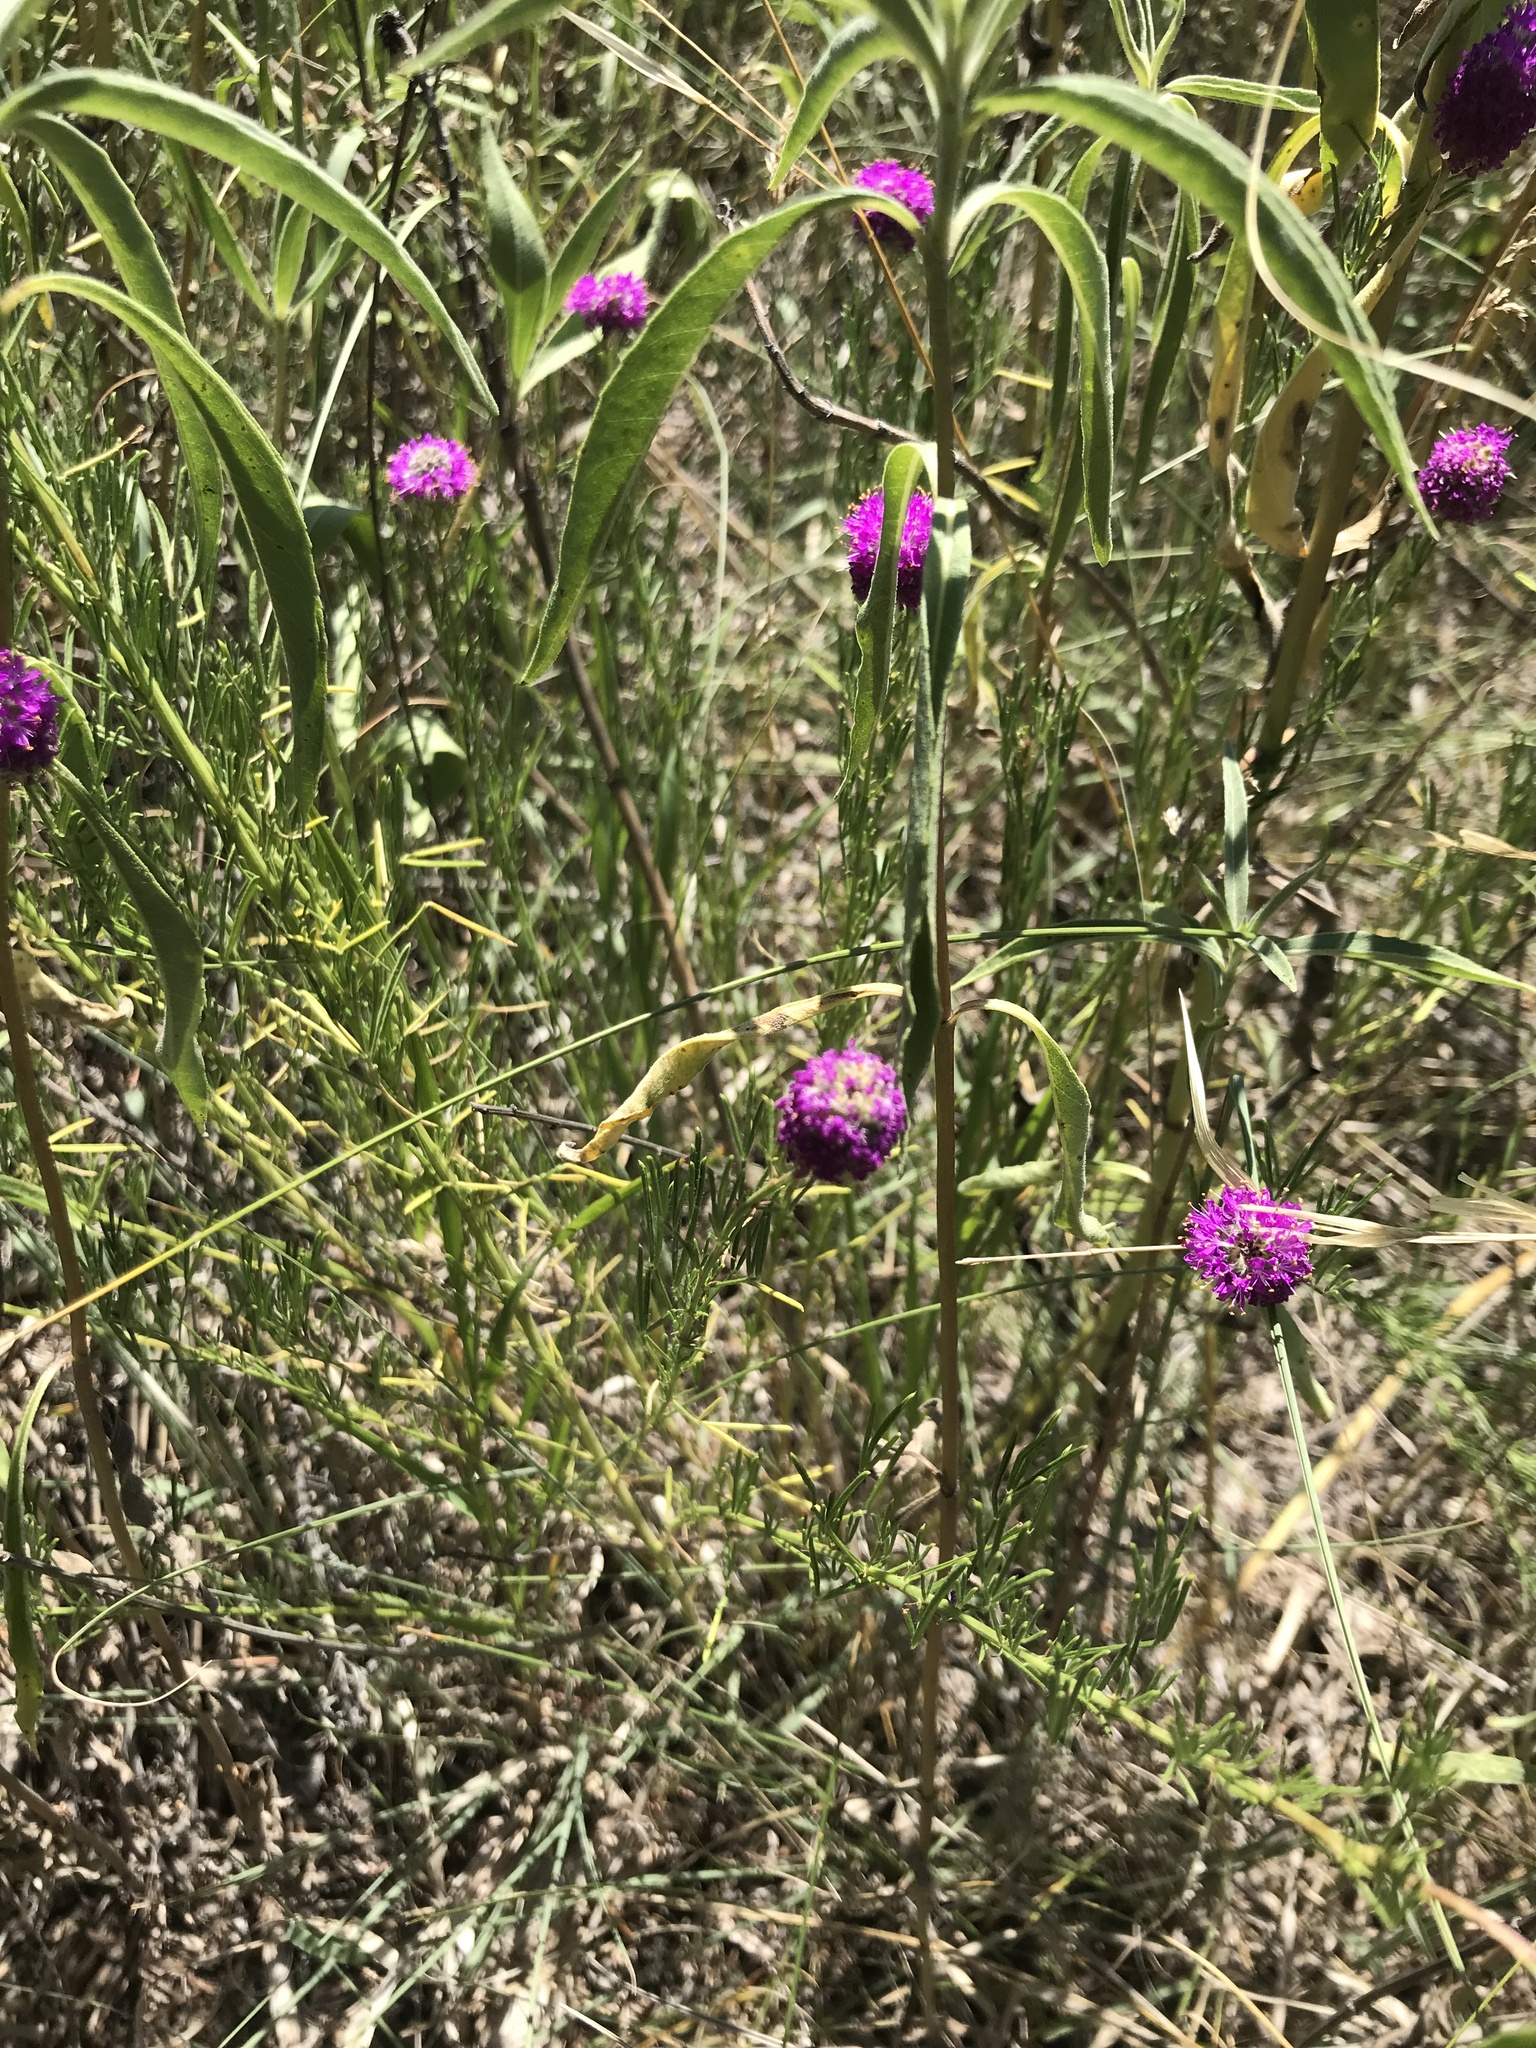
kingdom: Plantae
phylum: Tracheophyta
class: Magnoliopsida
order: Fabales
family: Fabaceae
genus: Dalea
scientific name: Dalea purpurea
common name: Purple prairie-clover
